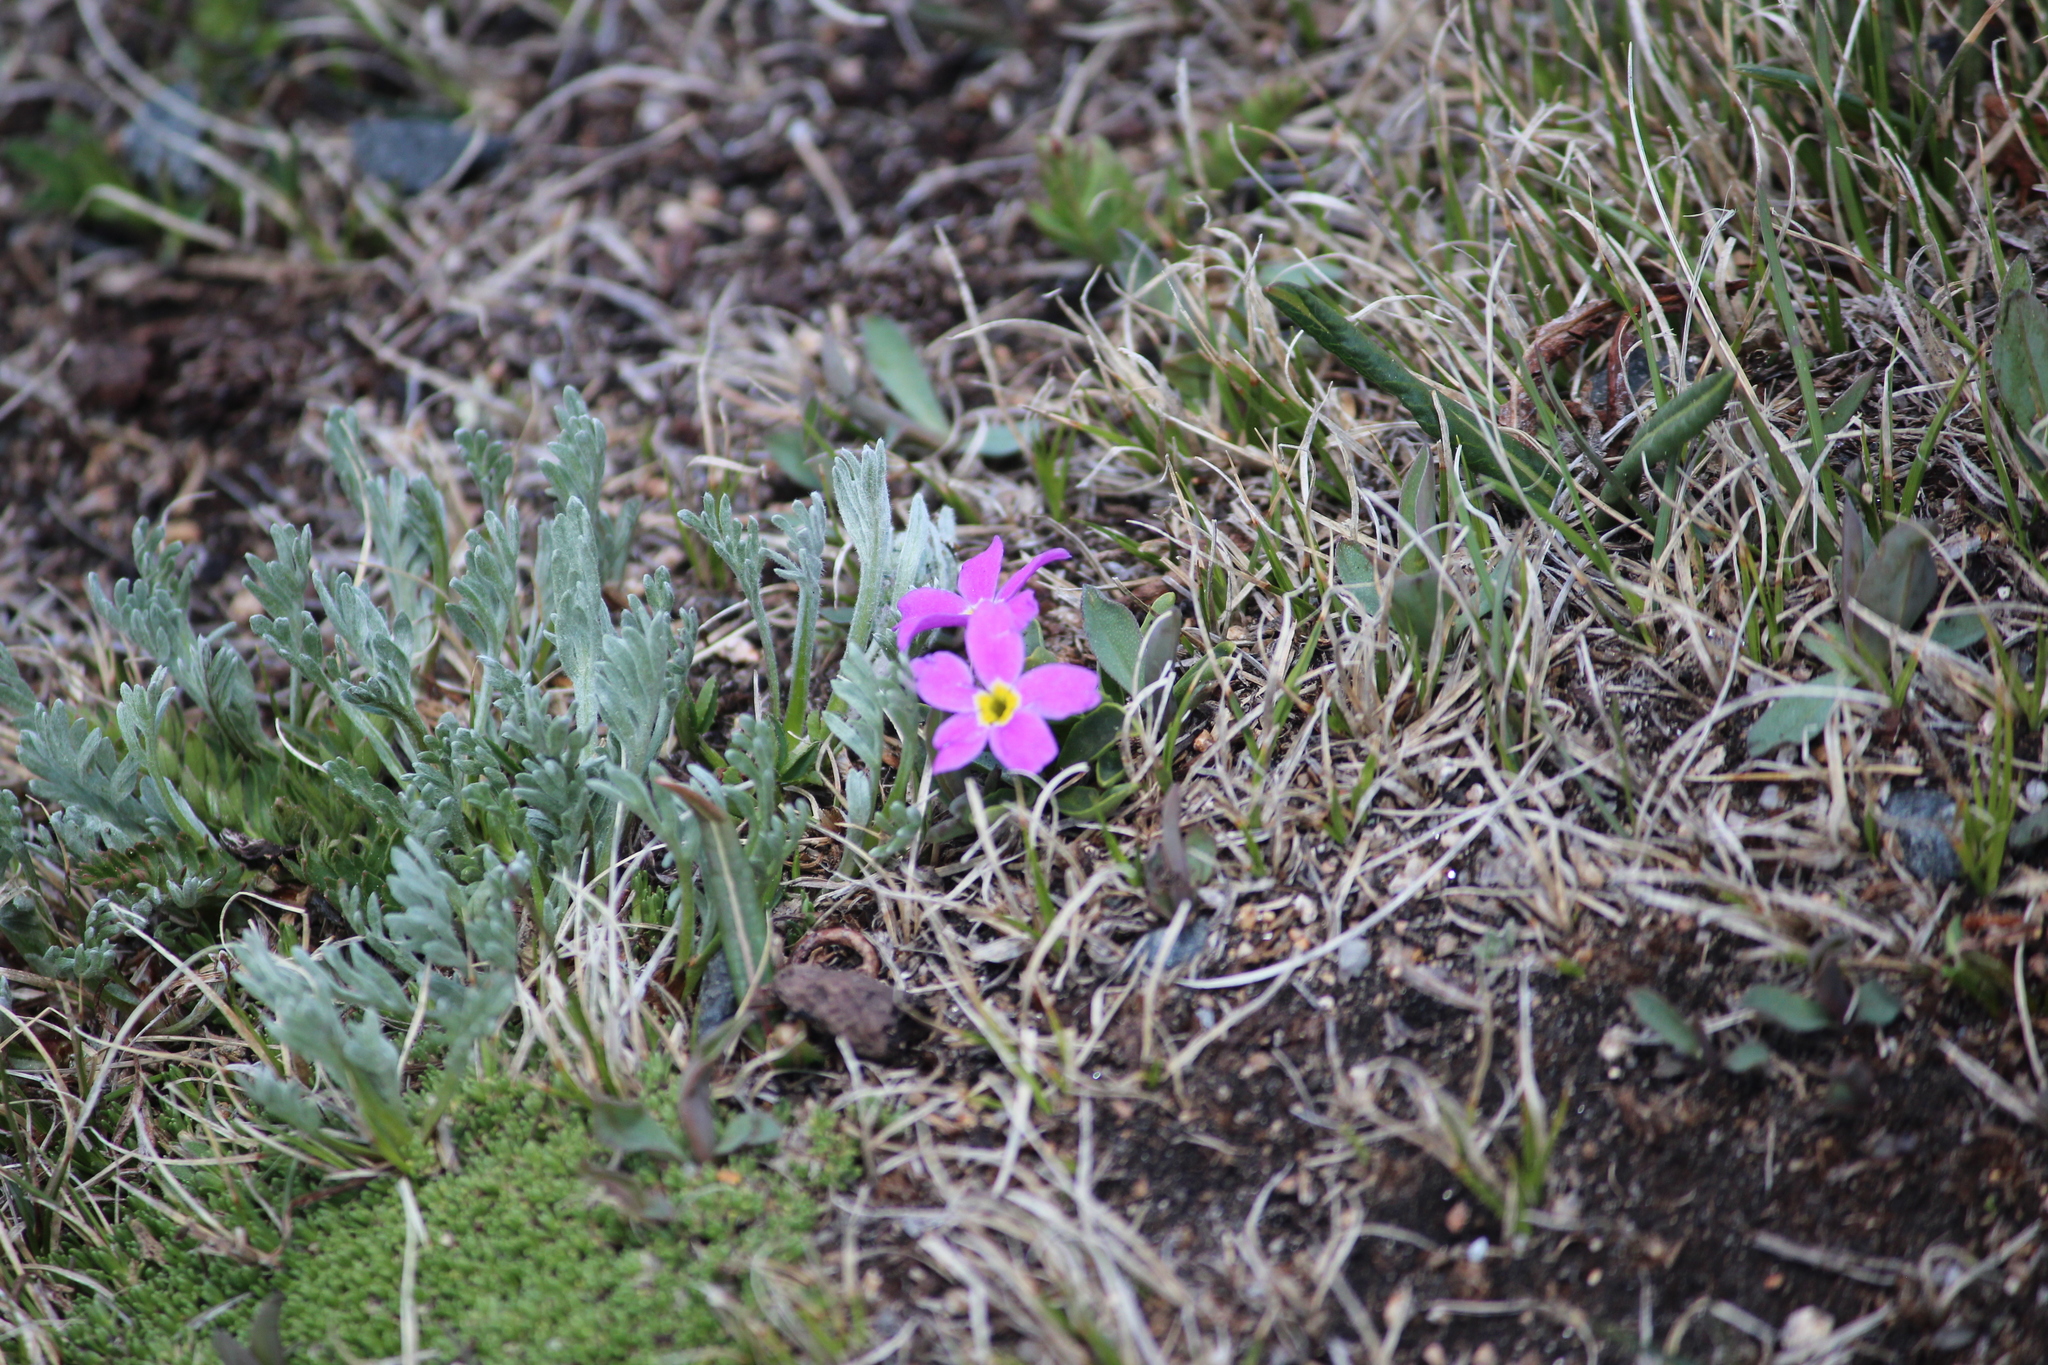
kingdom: Plantae
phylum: Tracheophyta
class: Magnoliopsida
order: Ericales
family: Primulaceae
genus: Primula
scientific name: Primula angustifolia
